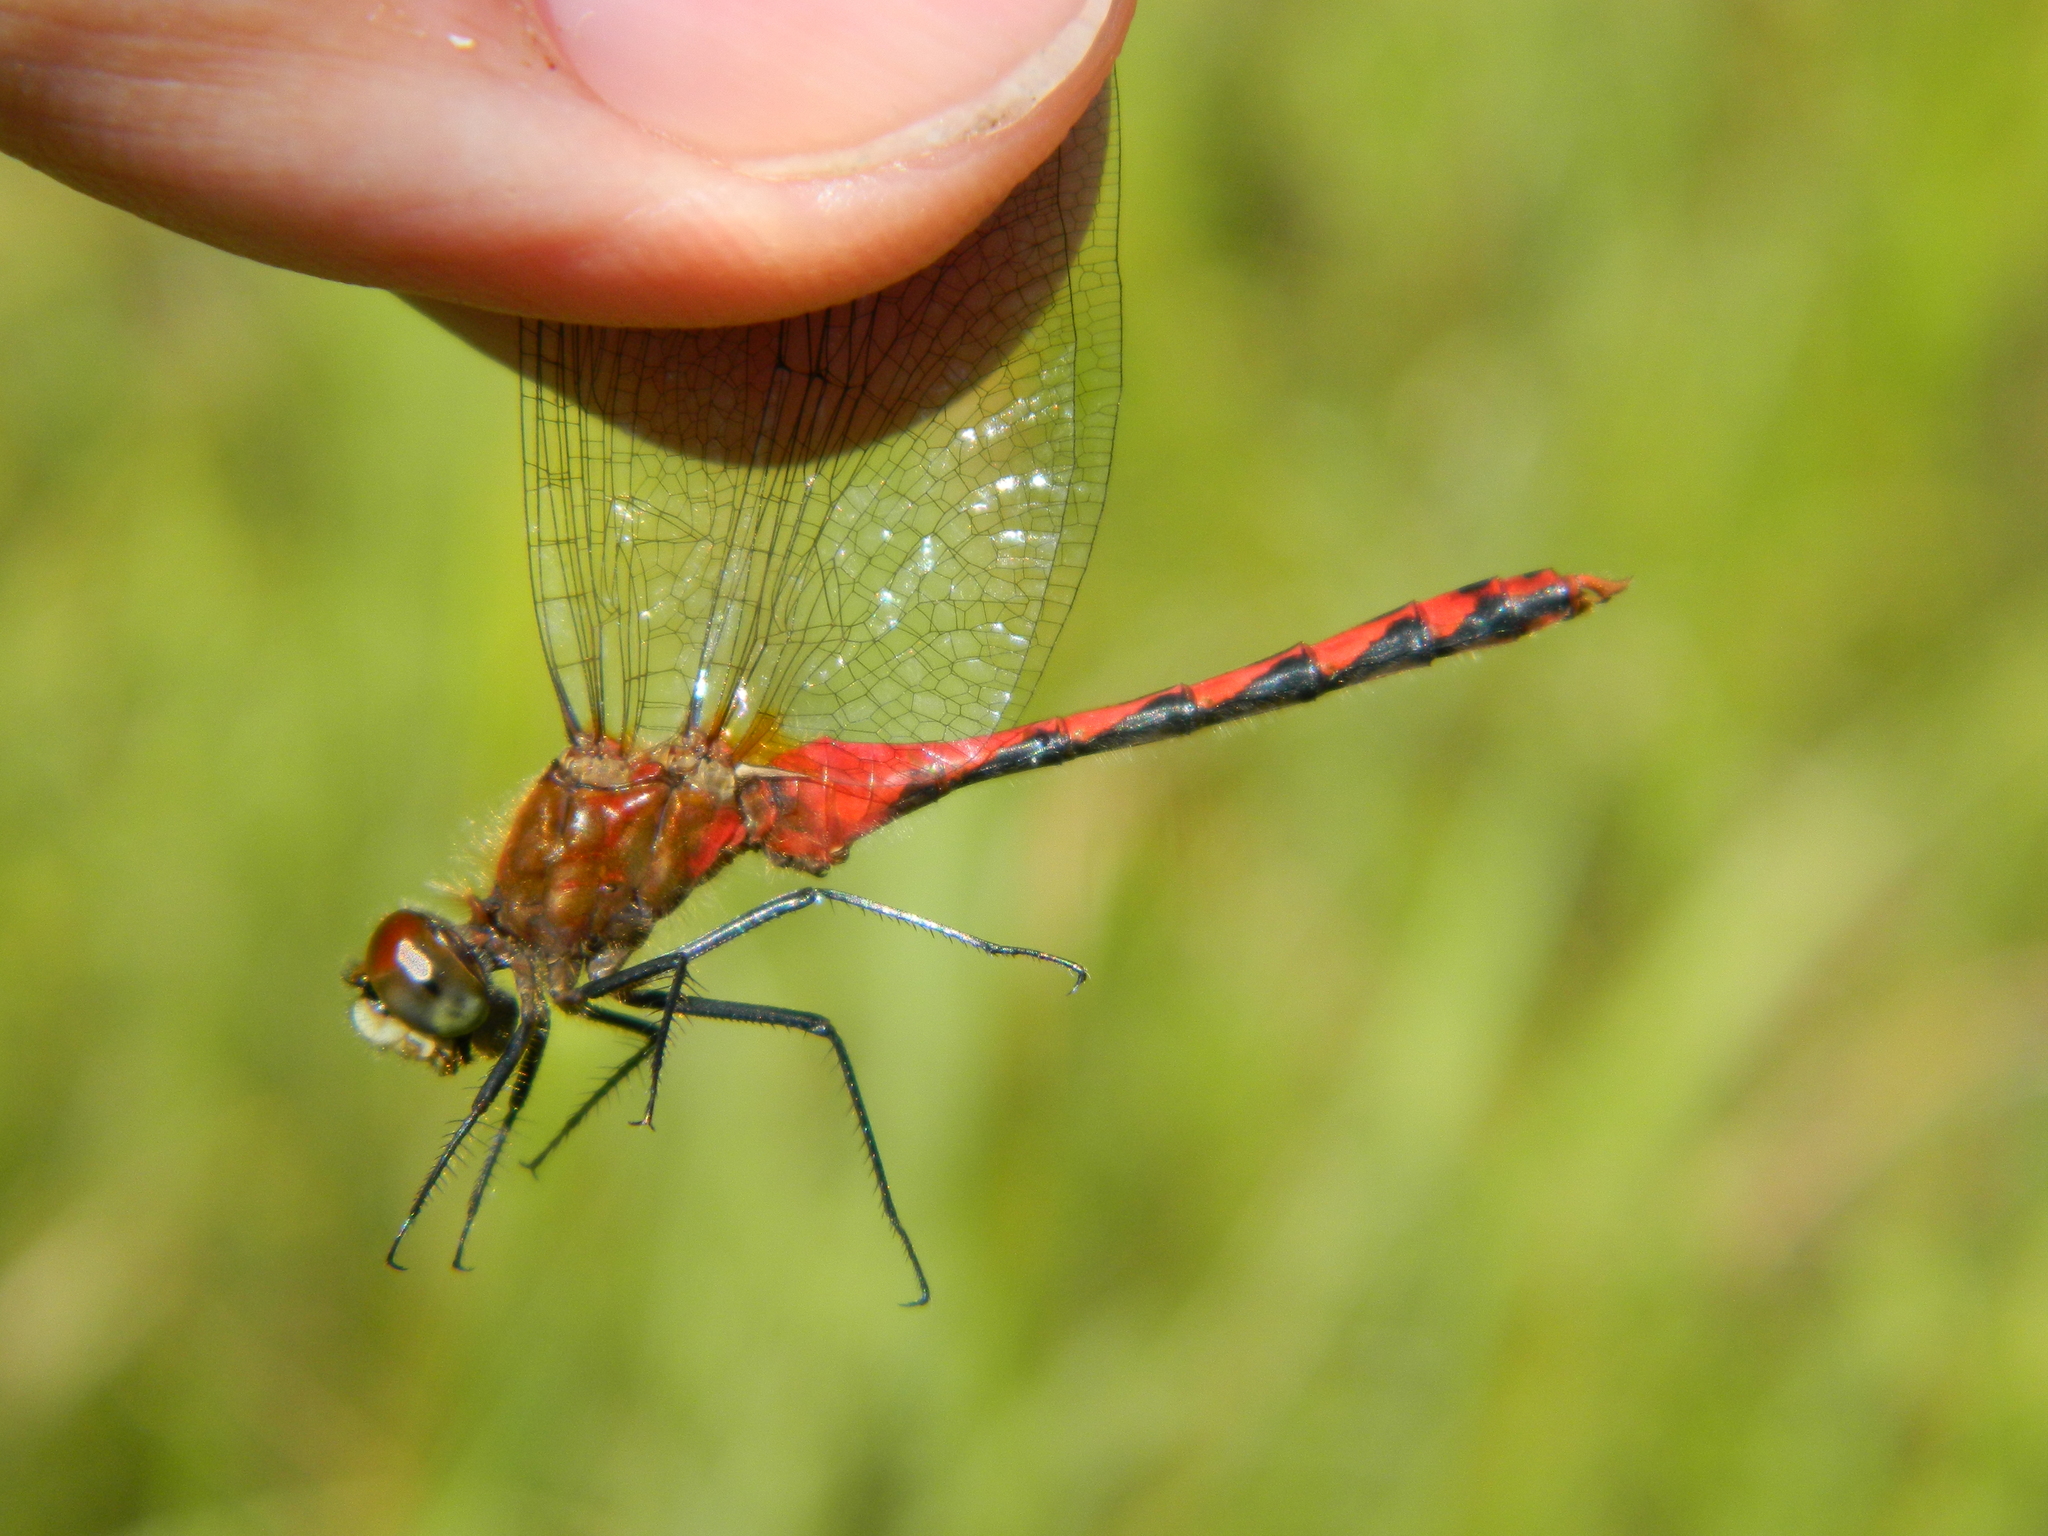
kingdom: Animalia
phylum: Arthropoda
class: Insecta
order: Odonata
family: Libellulidae
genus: Sympetrum
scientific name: Sympetrum obtrusum
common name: White-faced meadowhawk
